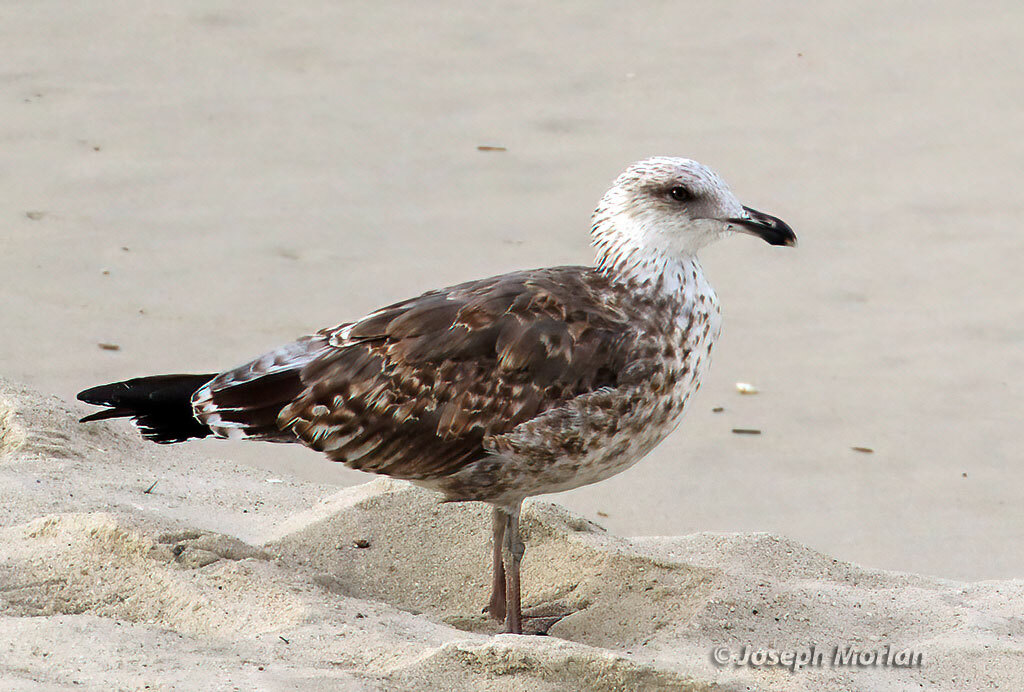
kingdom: Animalia
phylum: Chordata
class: Aves
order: Charadriiformes
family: Laridae
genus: Larus
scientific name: Larus fuscus
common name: Lesser black-backed gull
